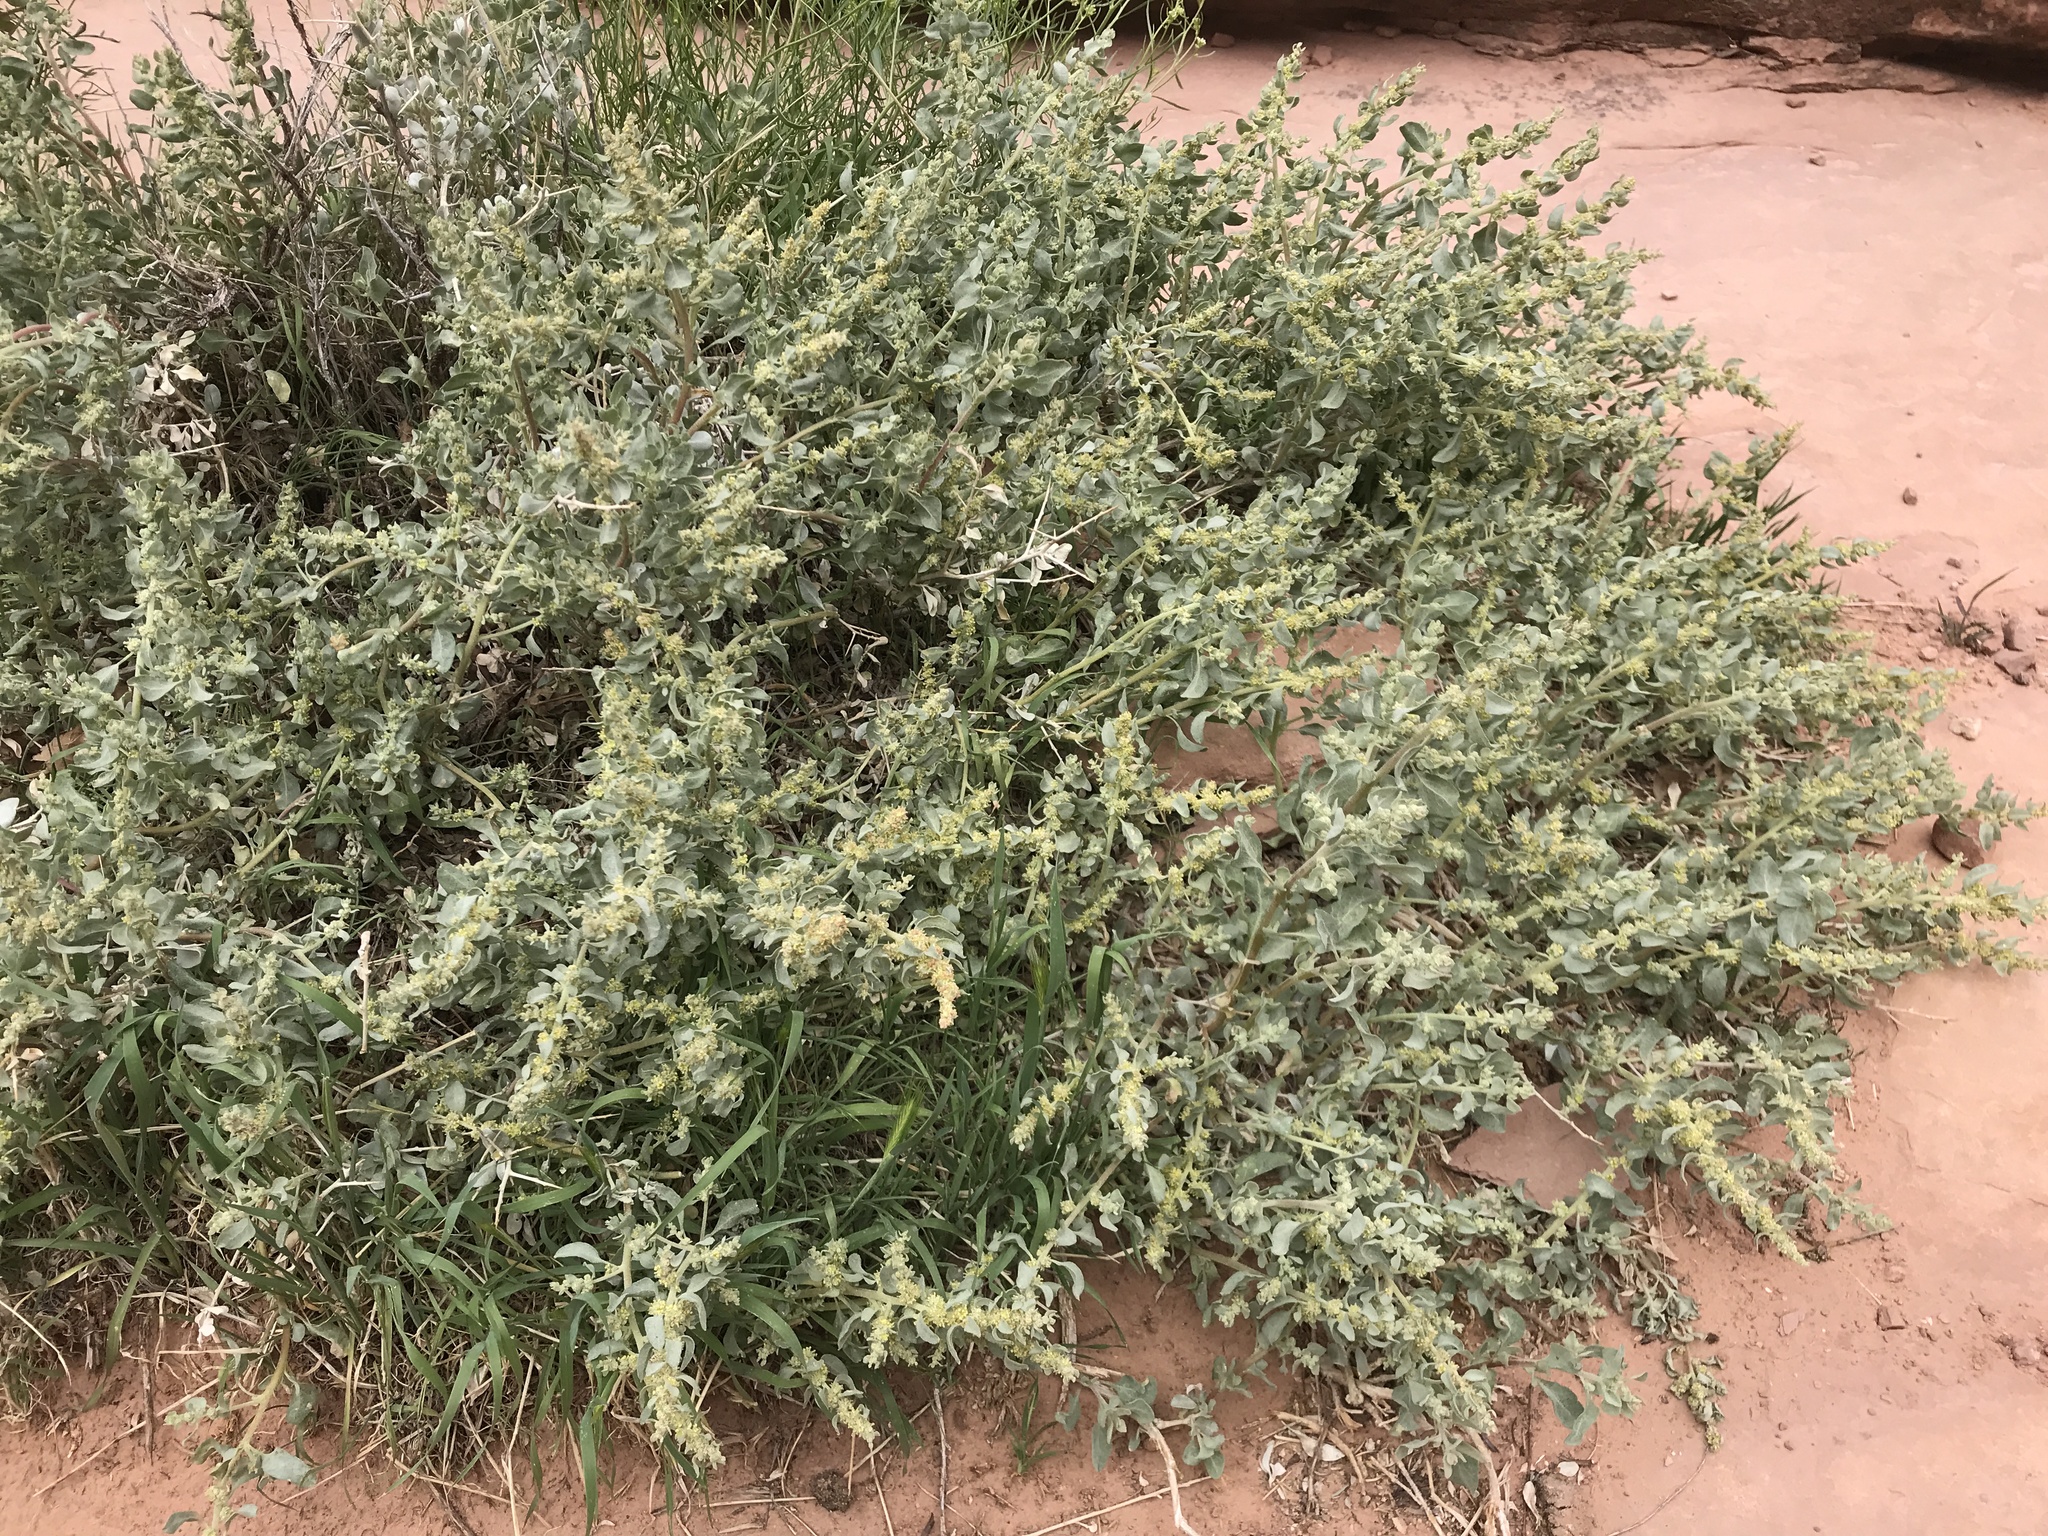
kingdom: Plantae
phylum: Tracheophyta
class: Magnoliopsida
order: Caryophyllales
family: Amaranthaceae
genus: Atriplex
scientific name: Atriplex confertifolia
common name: Shadscale
